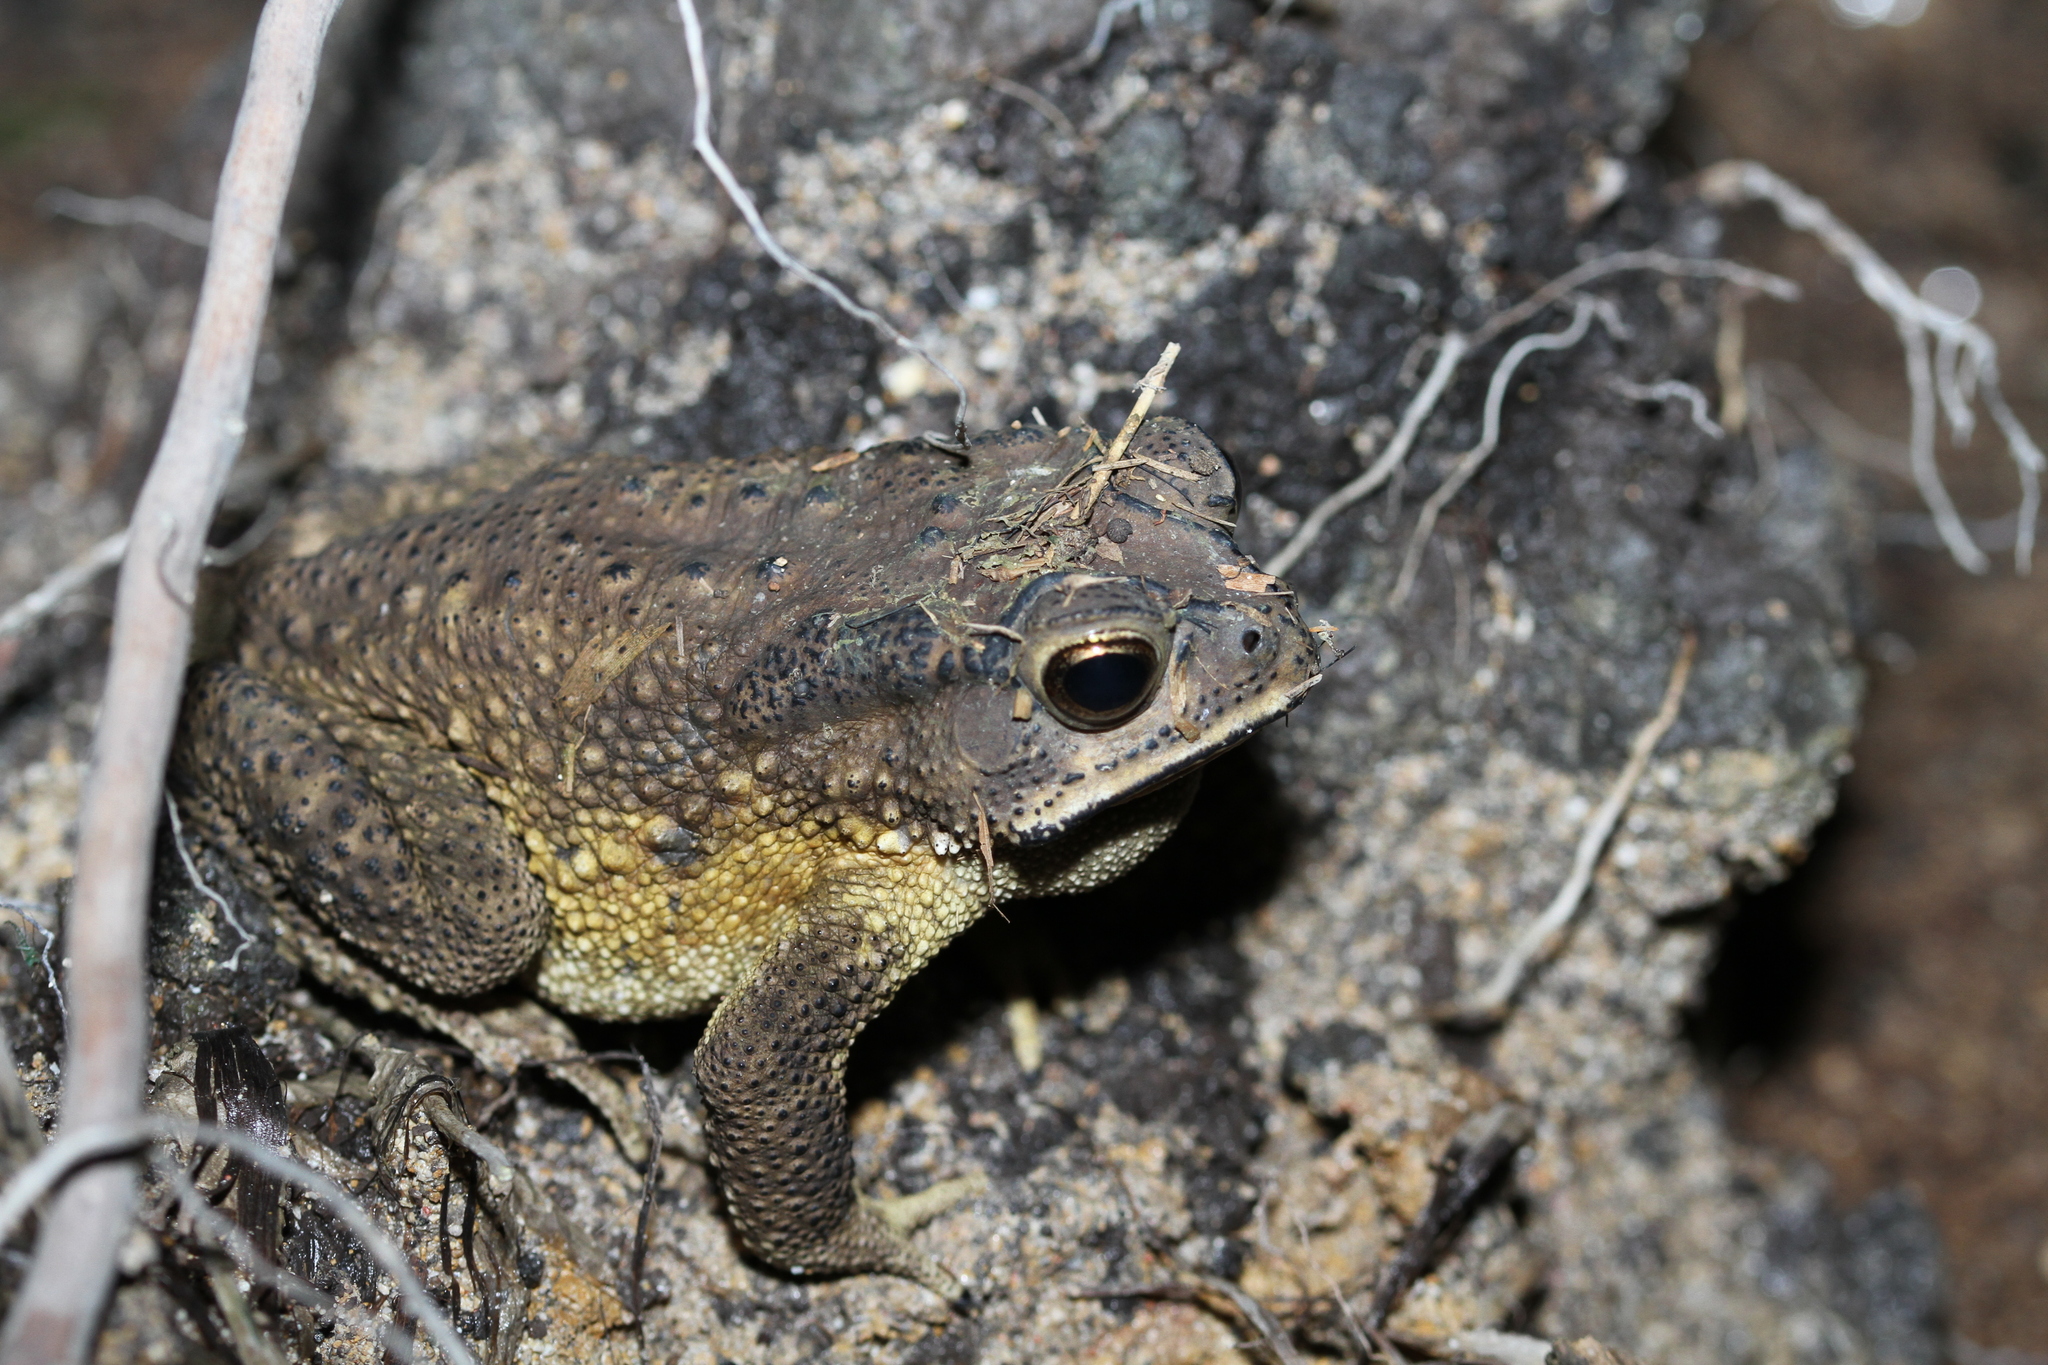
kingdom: Animalia
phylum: Chordata
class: Amphibia
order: Anura
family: Bufonidae
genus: Duttaphrynus
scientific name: Duttaphrynus melanostictus
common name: Common sunda toad
